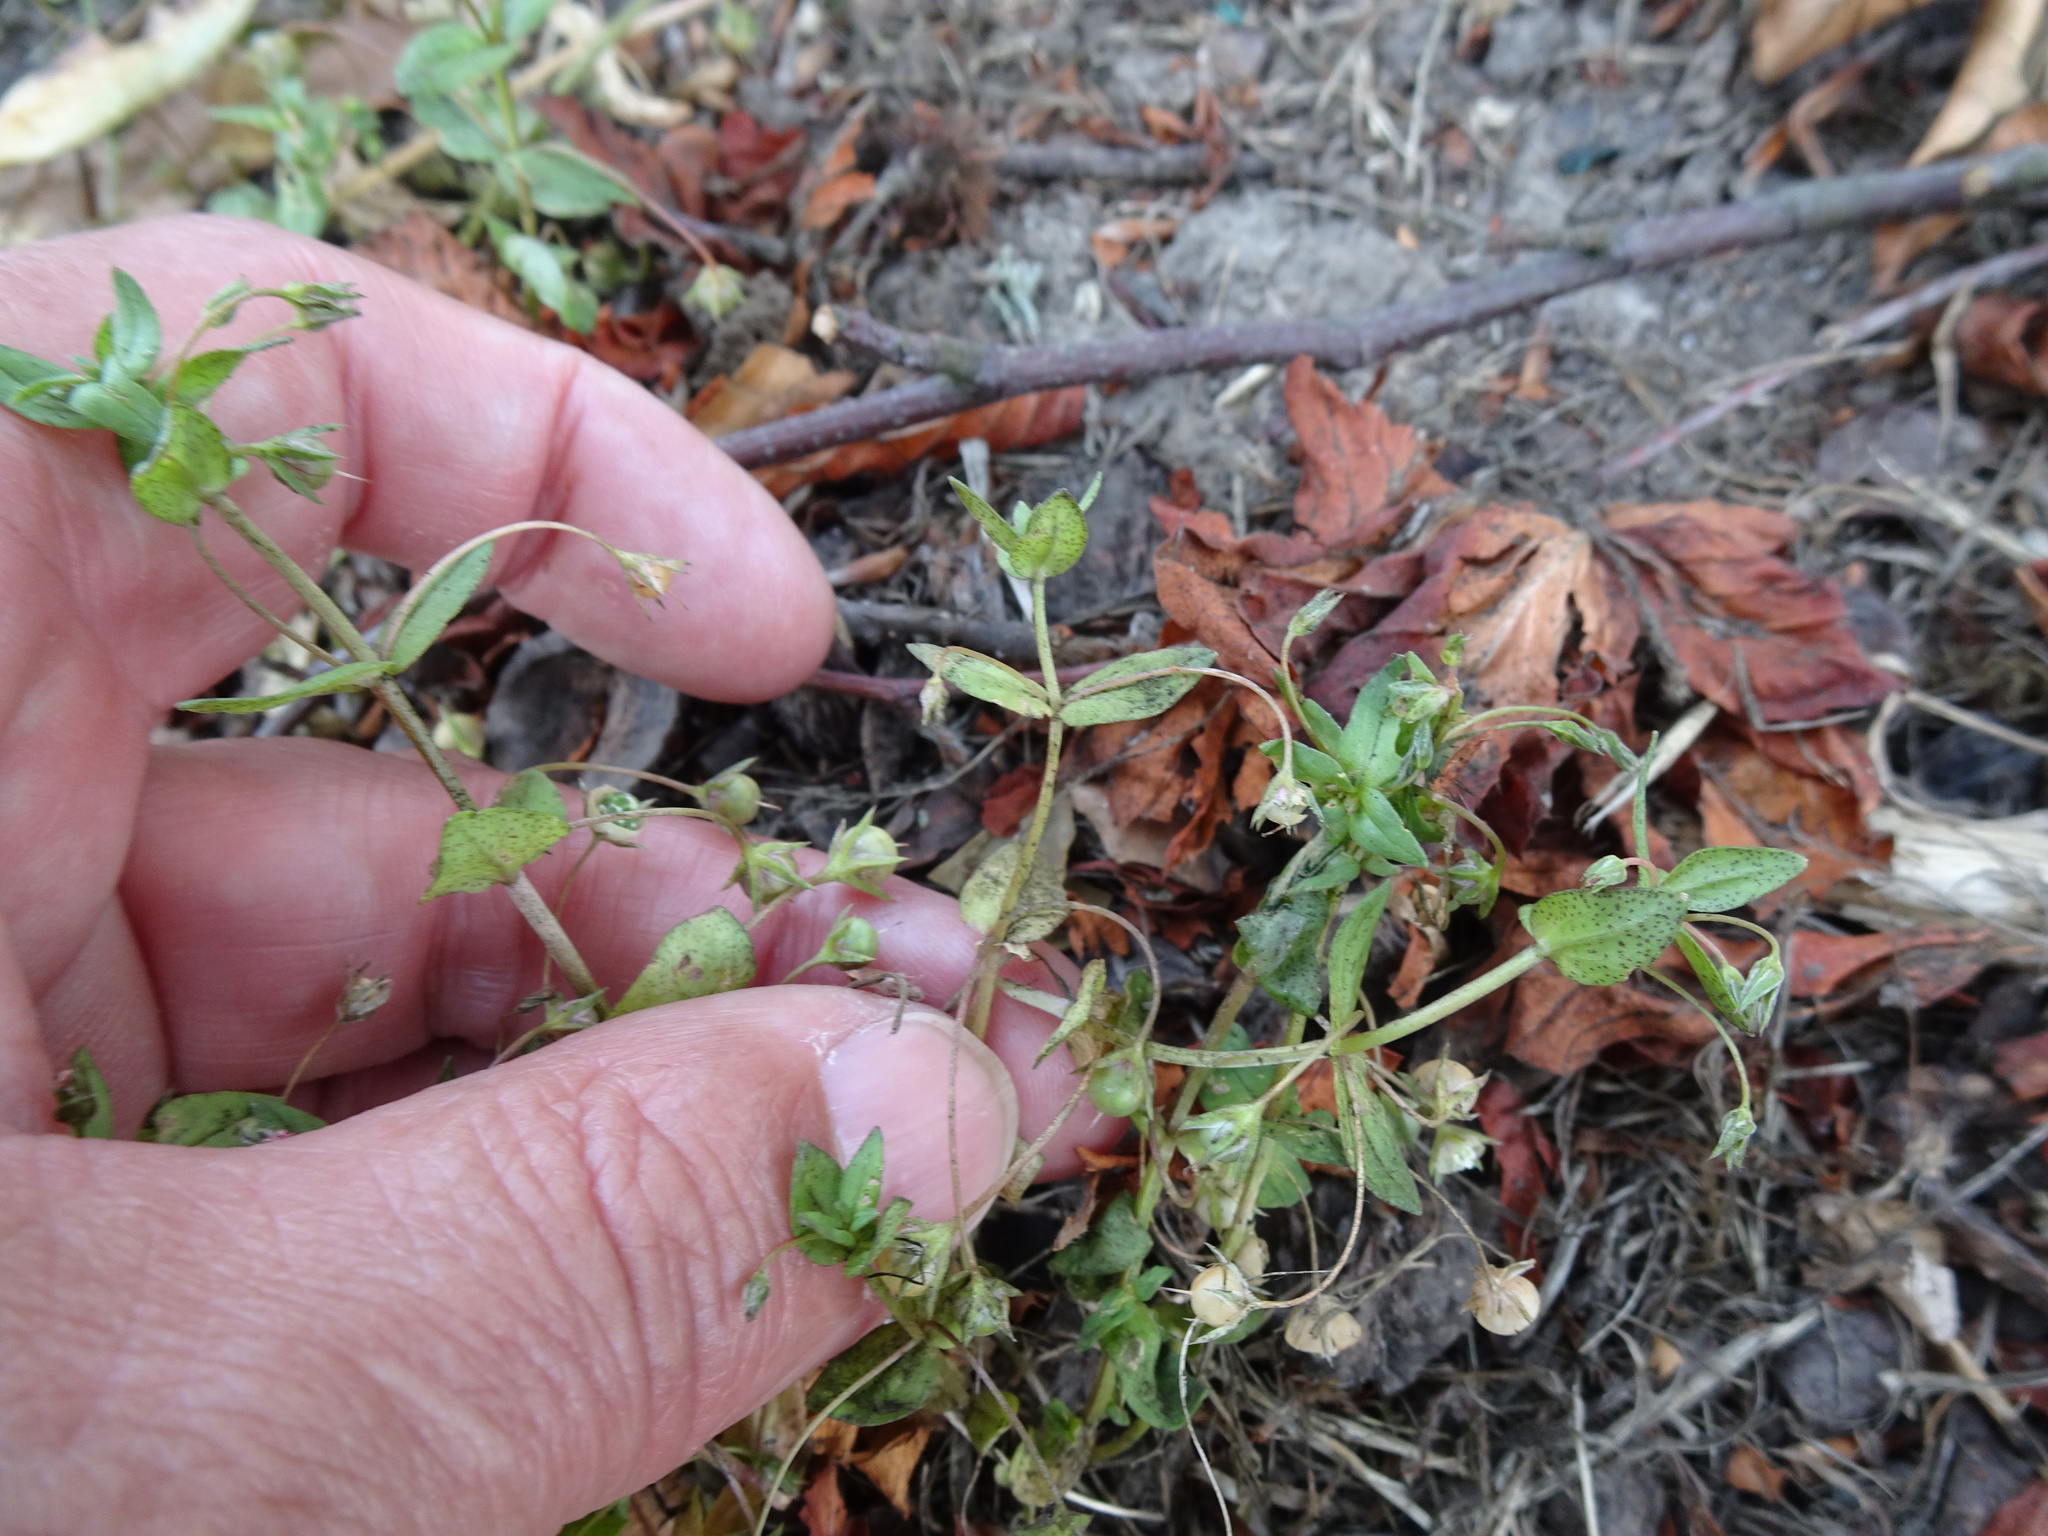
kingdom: Plantae
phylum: Tracheophyta
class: Magnoliopsida
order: Ericales
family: Primulaceae
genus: Lysimachia
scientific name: Lysimachia arvensis
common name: Scarlet pimpernel
